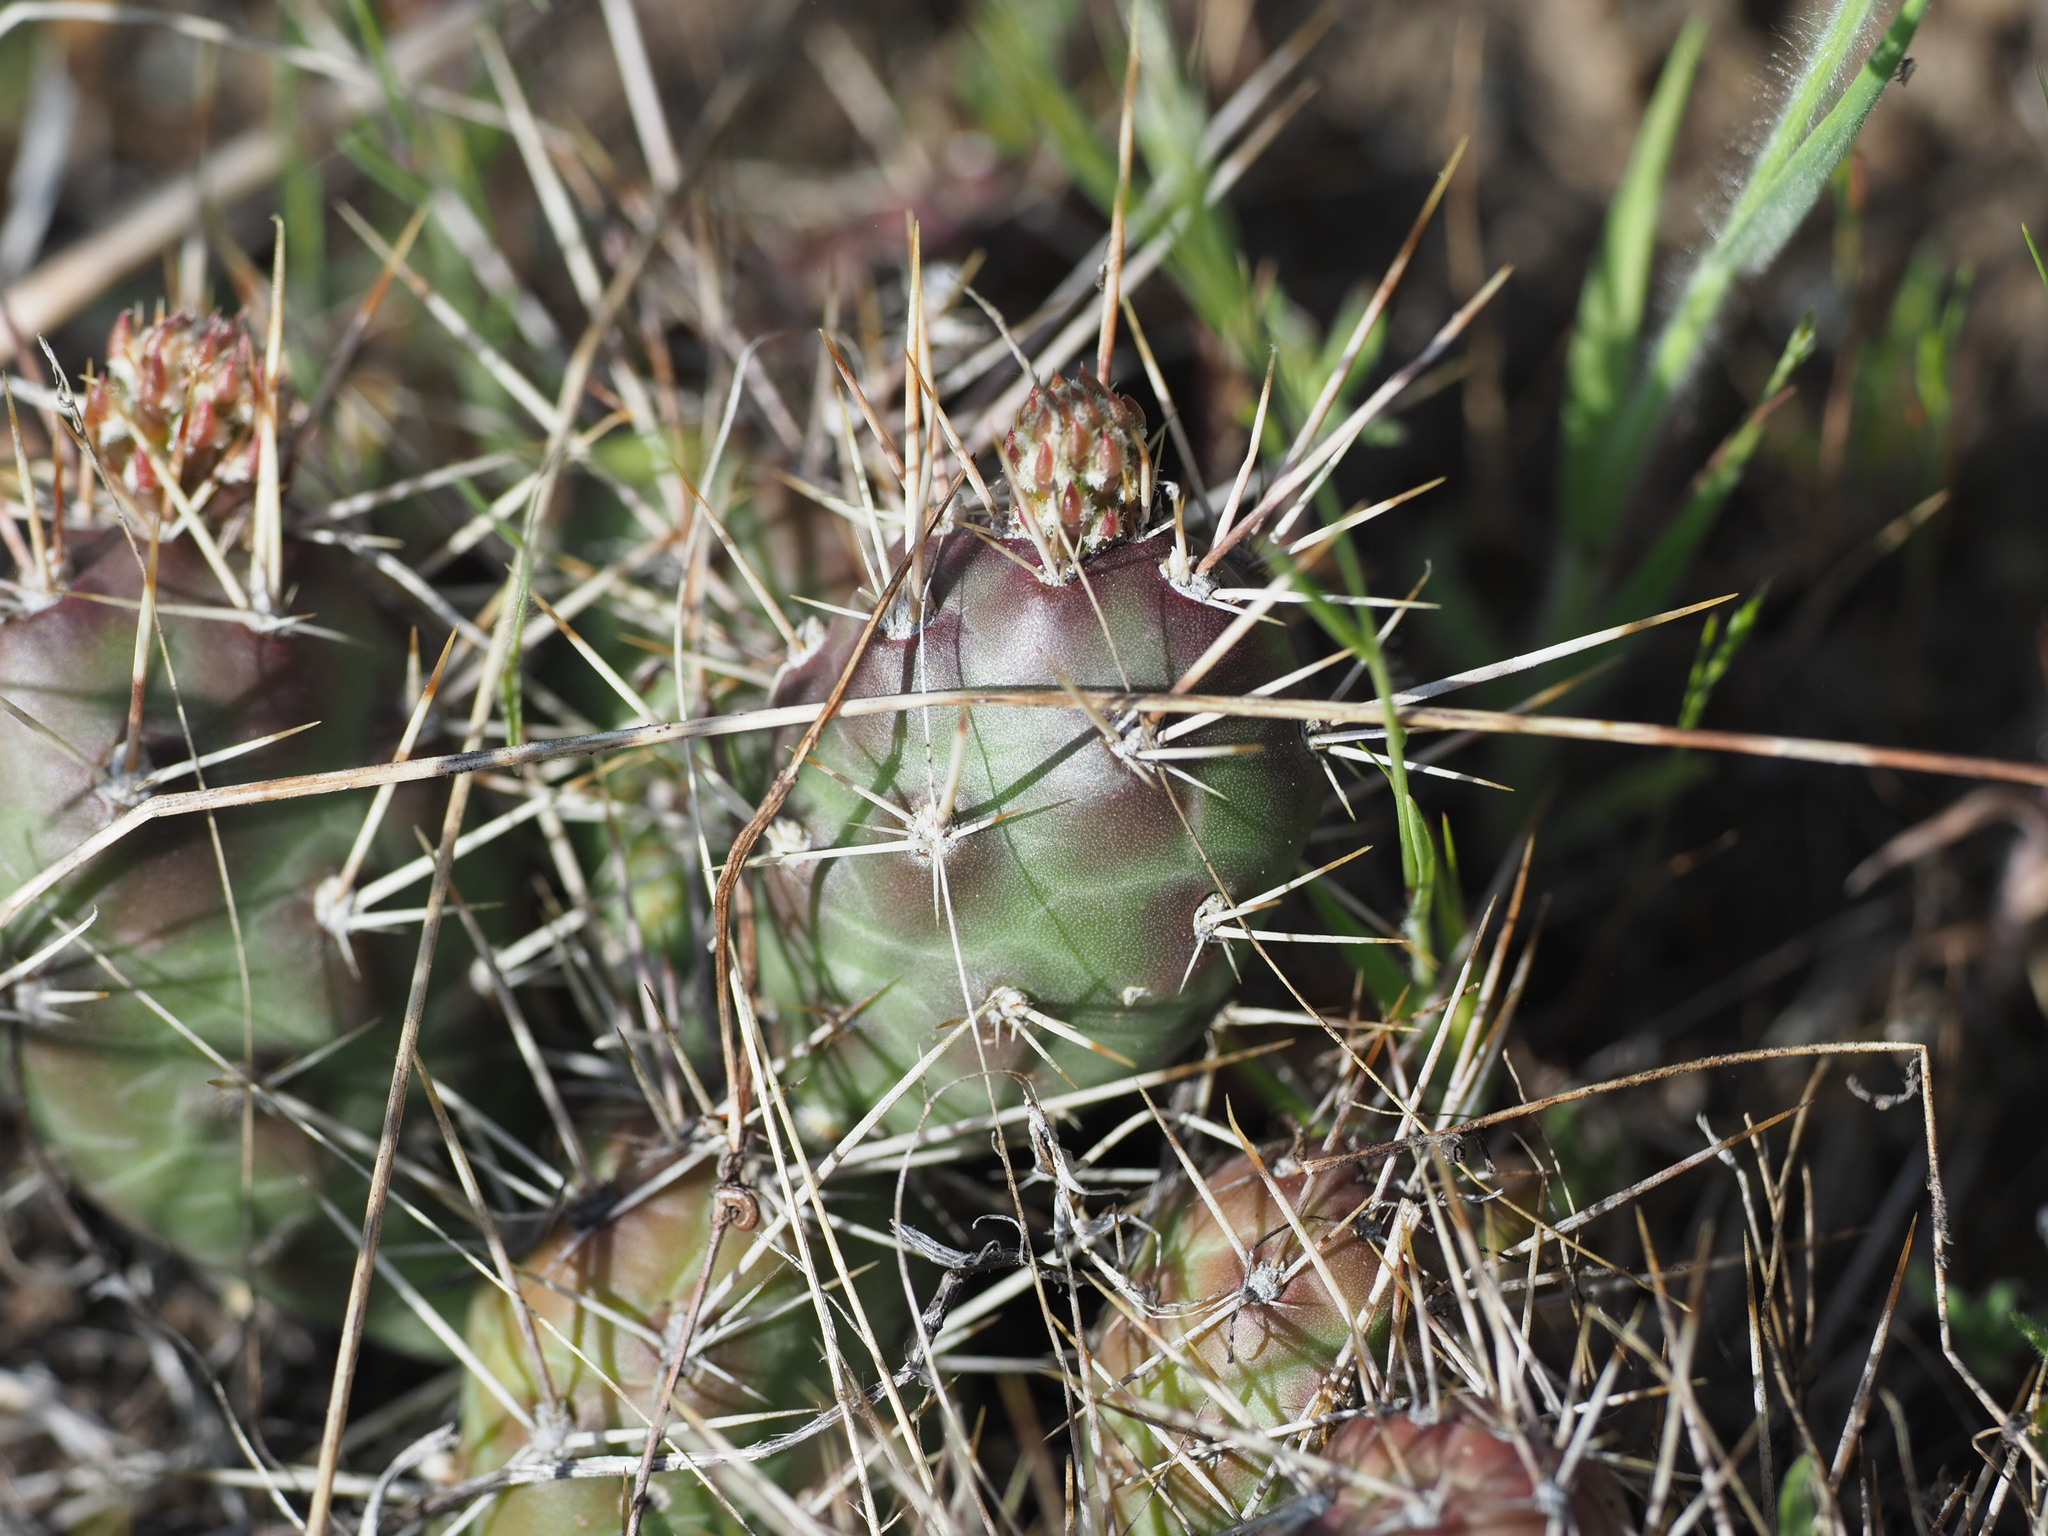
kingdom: Plantae
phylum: Tracheophyta
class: Magnoliopsida
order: Caryophyllales
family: Cactaceae
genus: Opuntia
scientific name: Opuntia fragilis
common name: Brittle cactus
